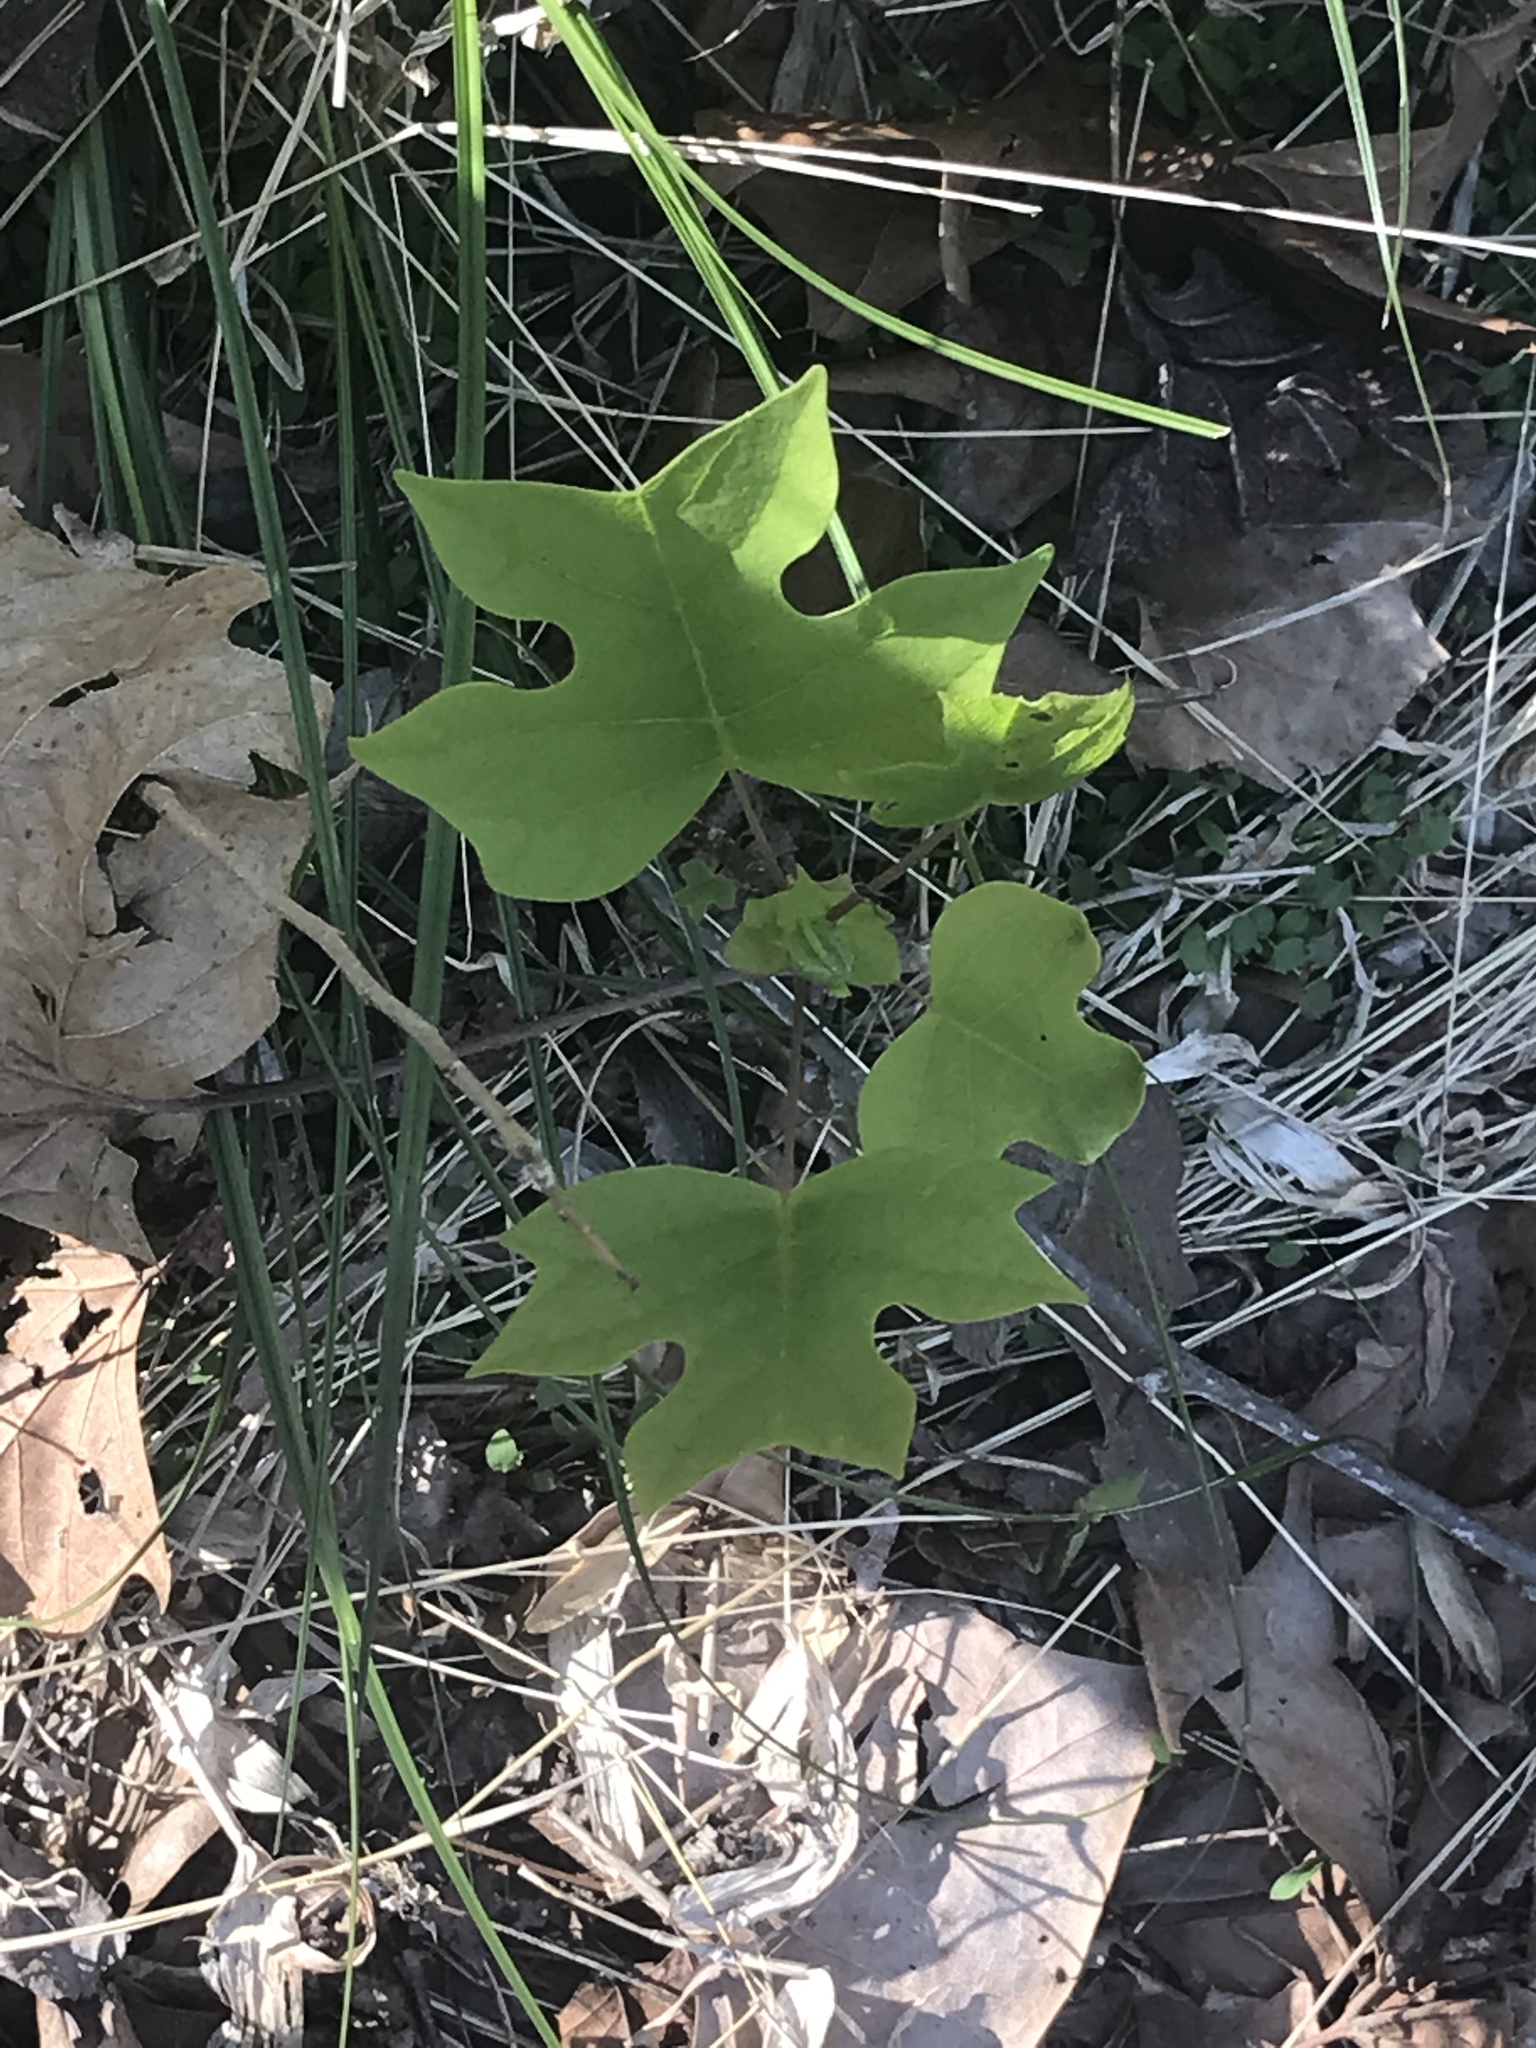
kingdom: Plantae
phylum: Tracheophyta
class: Magnoliopsida
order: Magnoliales
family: Magnoliaceae
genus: Liriodendron
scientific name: Liriodendron tulipifera
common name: Tulip tree
